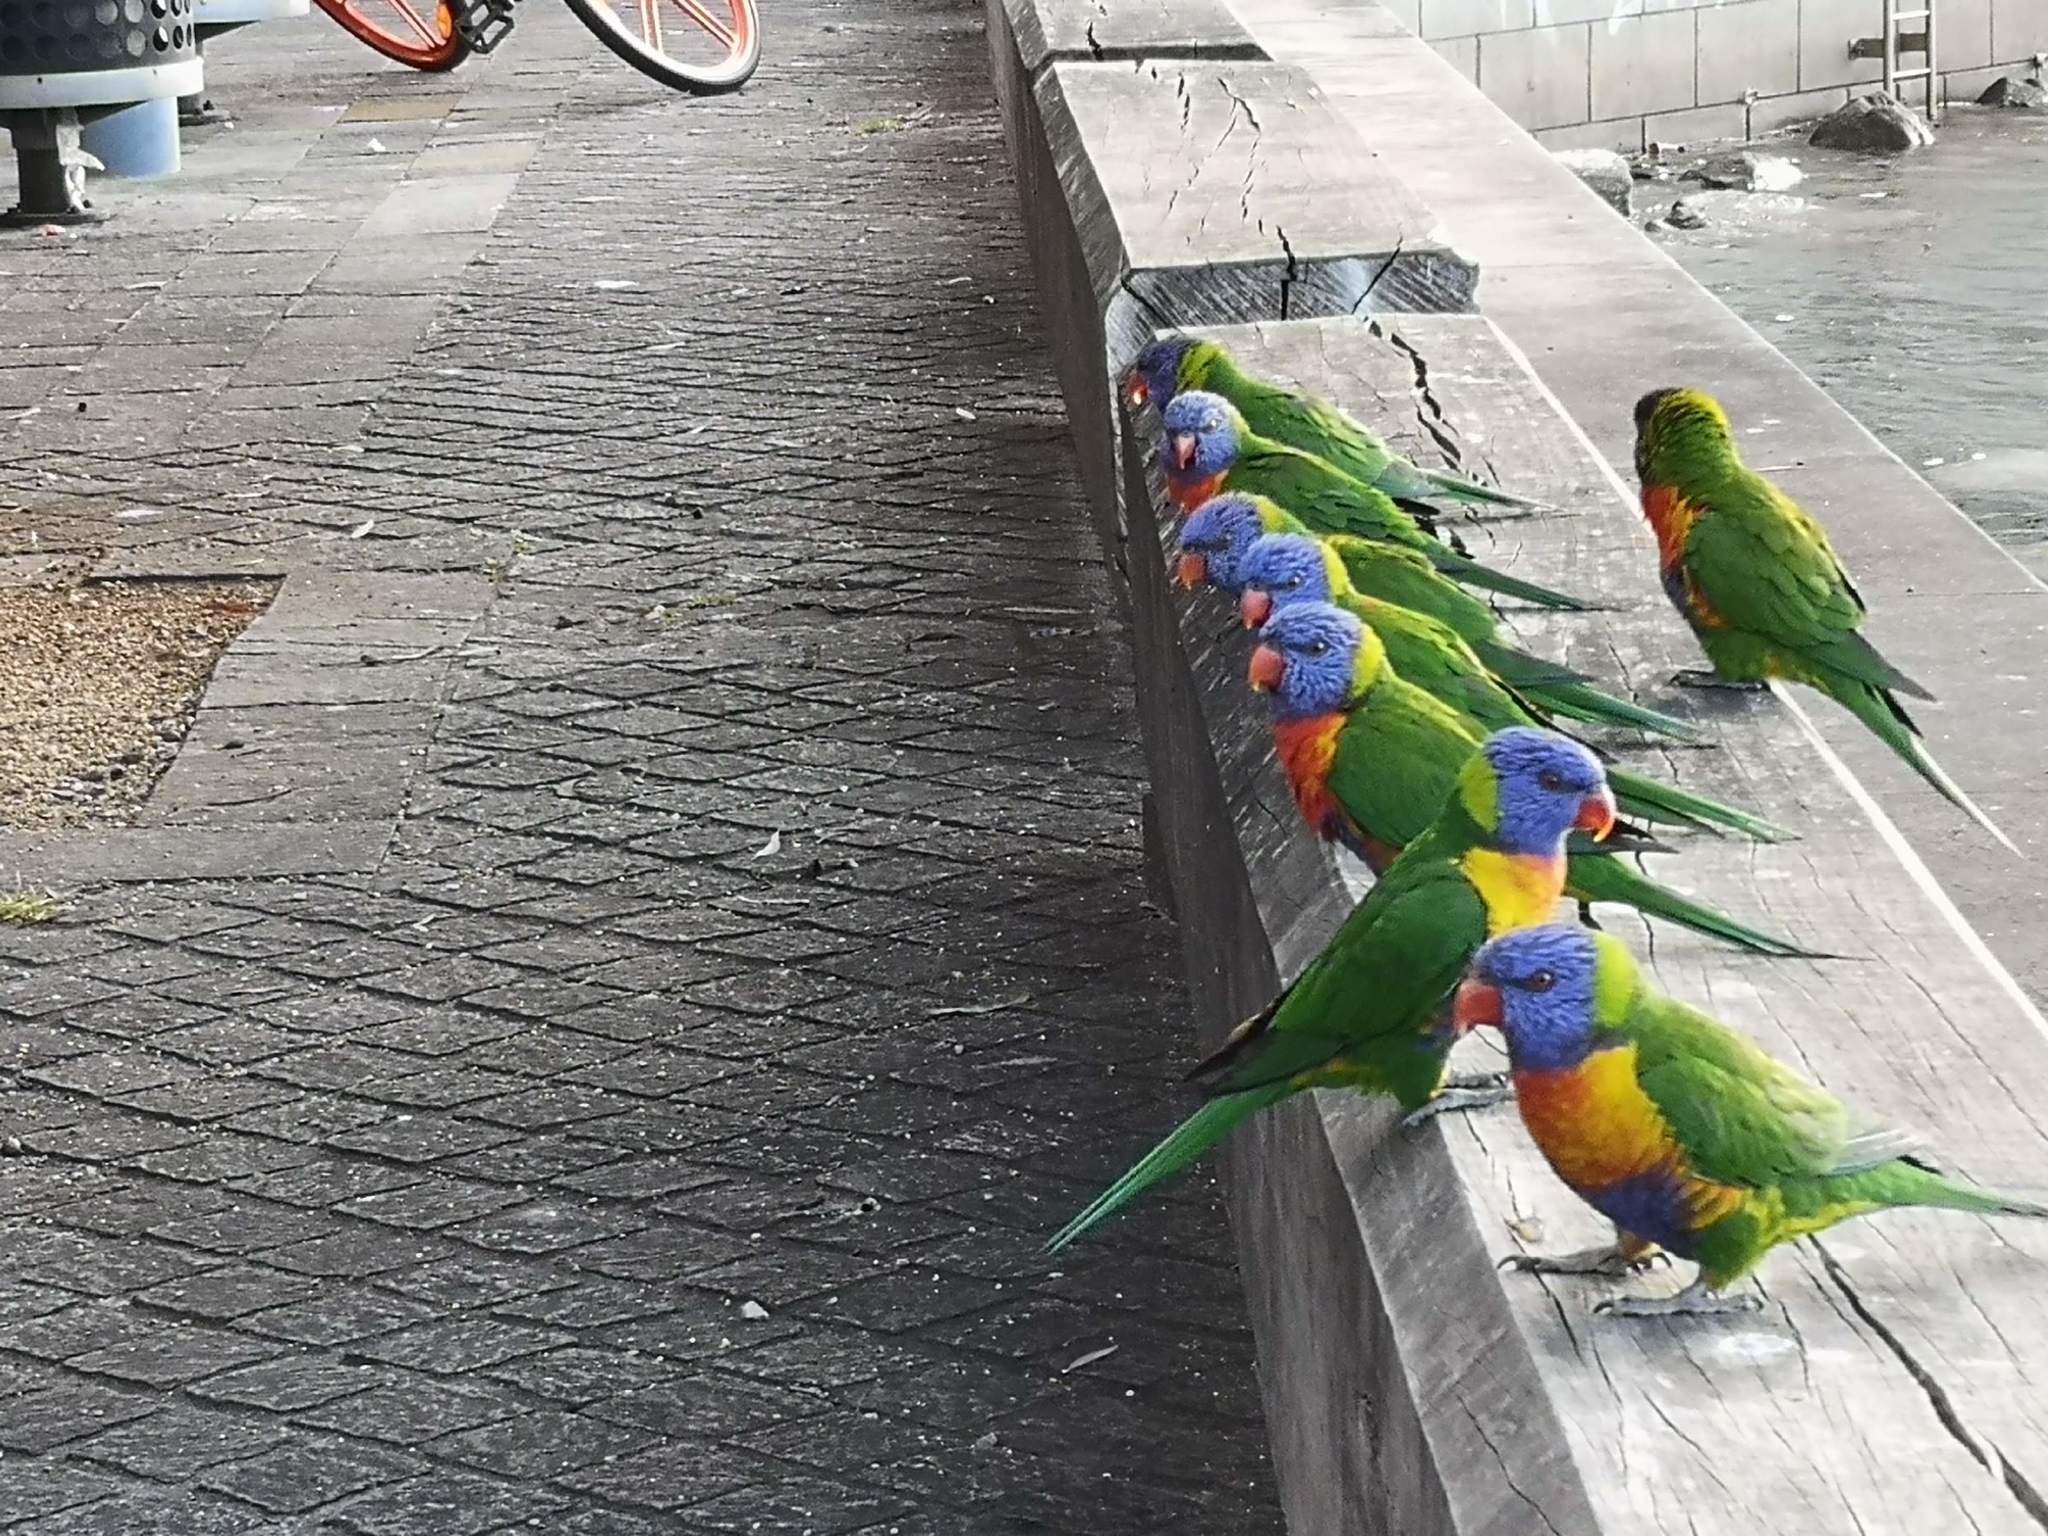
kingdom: Animalia
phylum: Chordata
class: Aves
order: Psittaciformes
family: Psittacidae
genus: Trichoglossus
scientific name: Trichoglossus haematodus
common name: Coconut lorikeet
